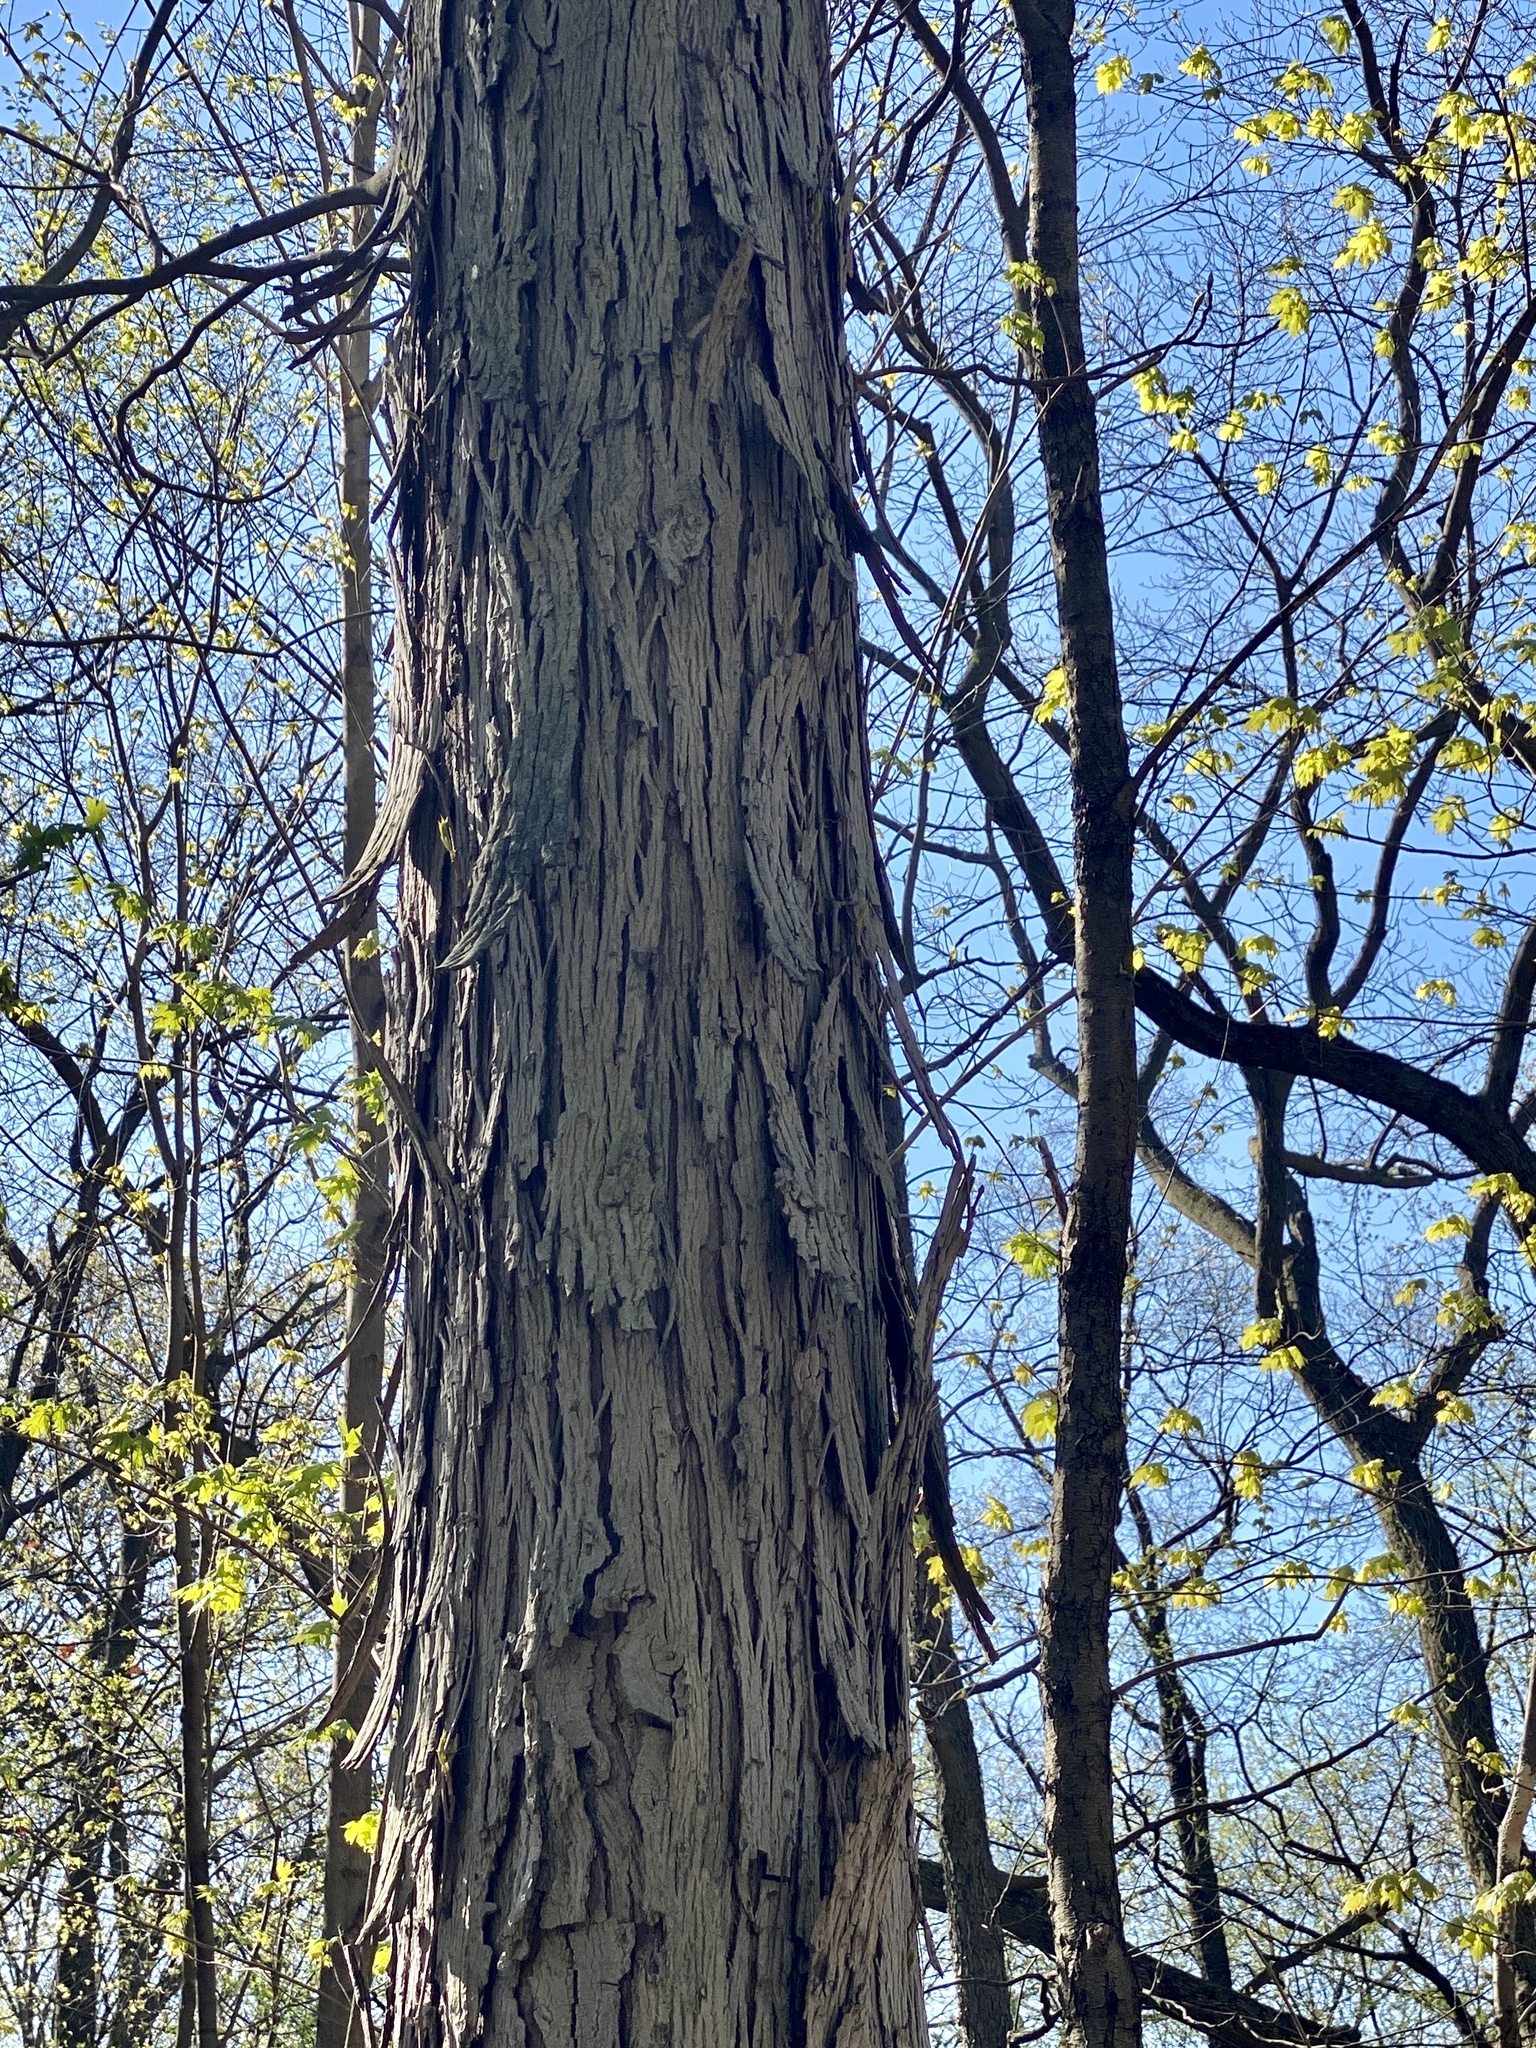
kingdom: Plantae
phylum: Tracheophyta
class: Magnoliopsida
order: Fagales
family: Juglandaceae
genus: Carya
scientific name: Carya ovata
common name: Shagbark hickory
